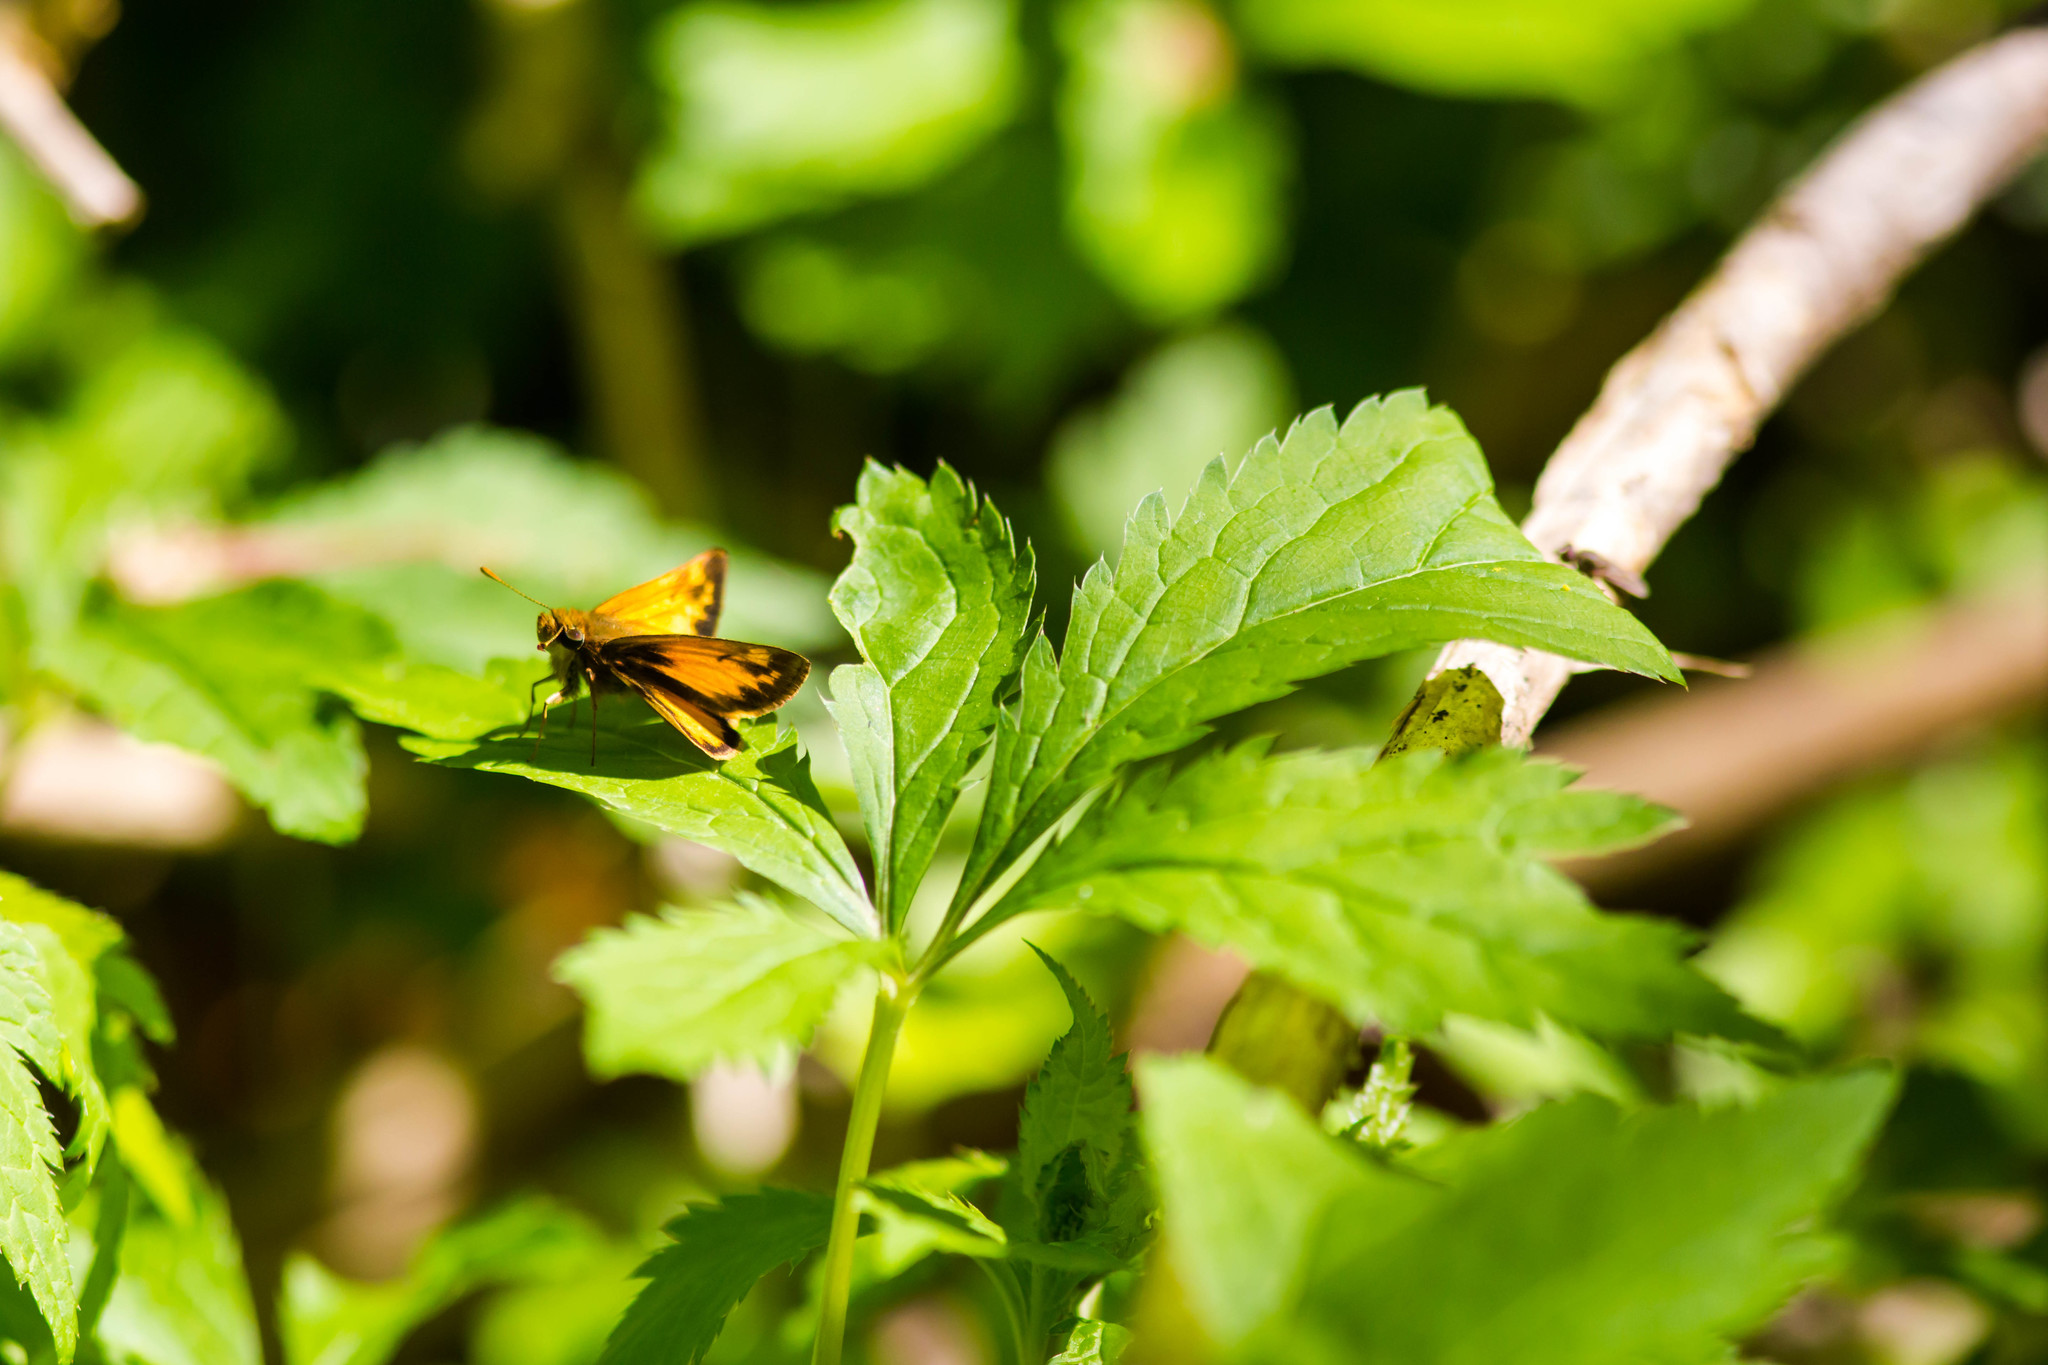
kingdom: Animalia
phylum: Arthropoda
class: Insecta
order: Lepidoptera
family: Hesperiidae
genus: Lon
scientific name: Lon zabulon
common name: Zabulon skipper
